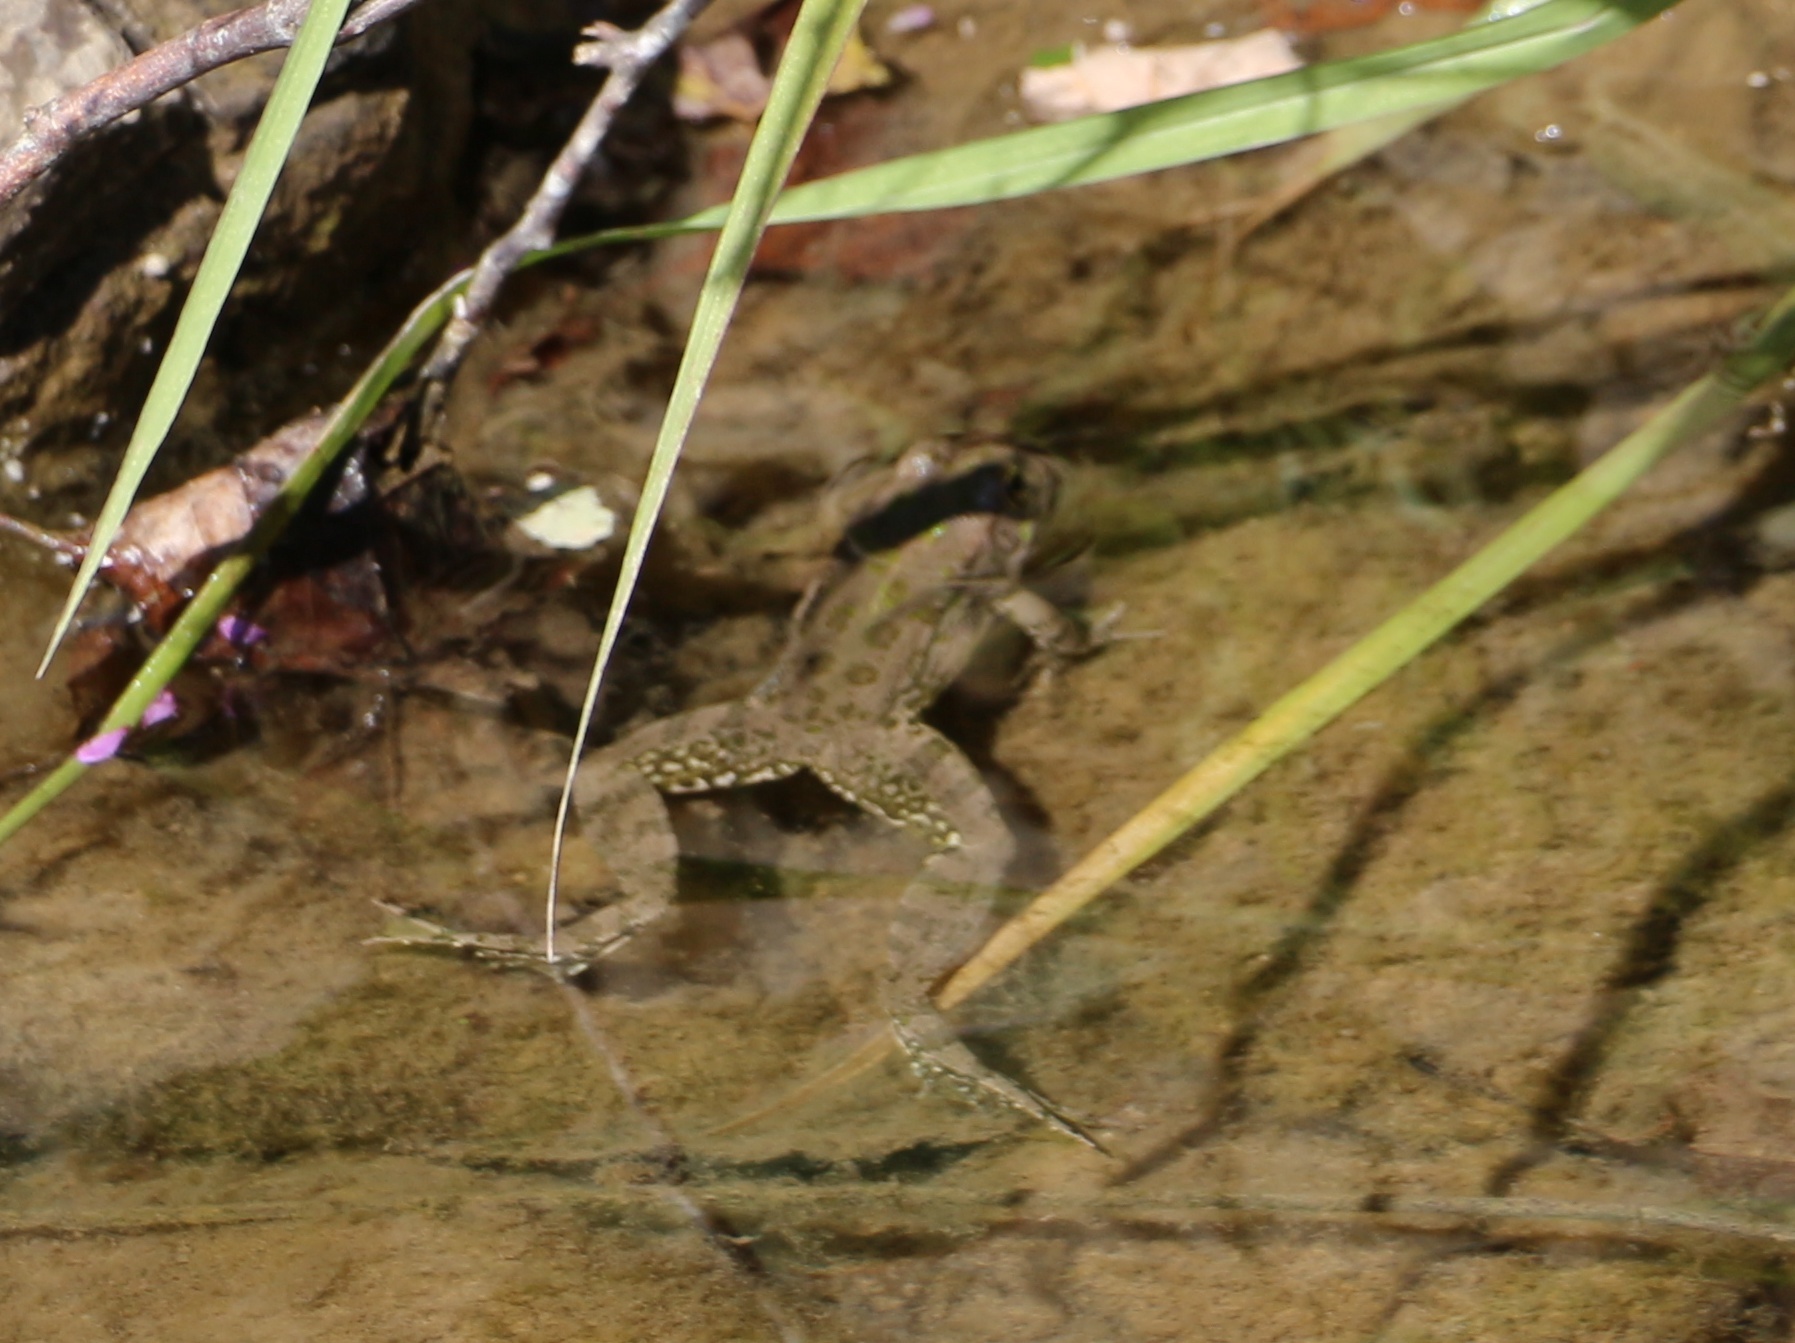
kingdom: Animalia
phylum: Chordata
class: Amphibia
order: Anura
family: Ranidae
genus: Pelophylax
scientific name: Pelophylax ridibundus
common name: Marsh frog
